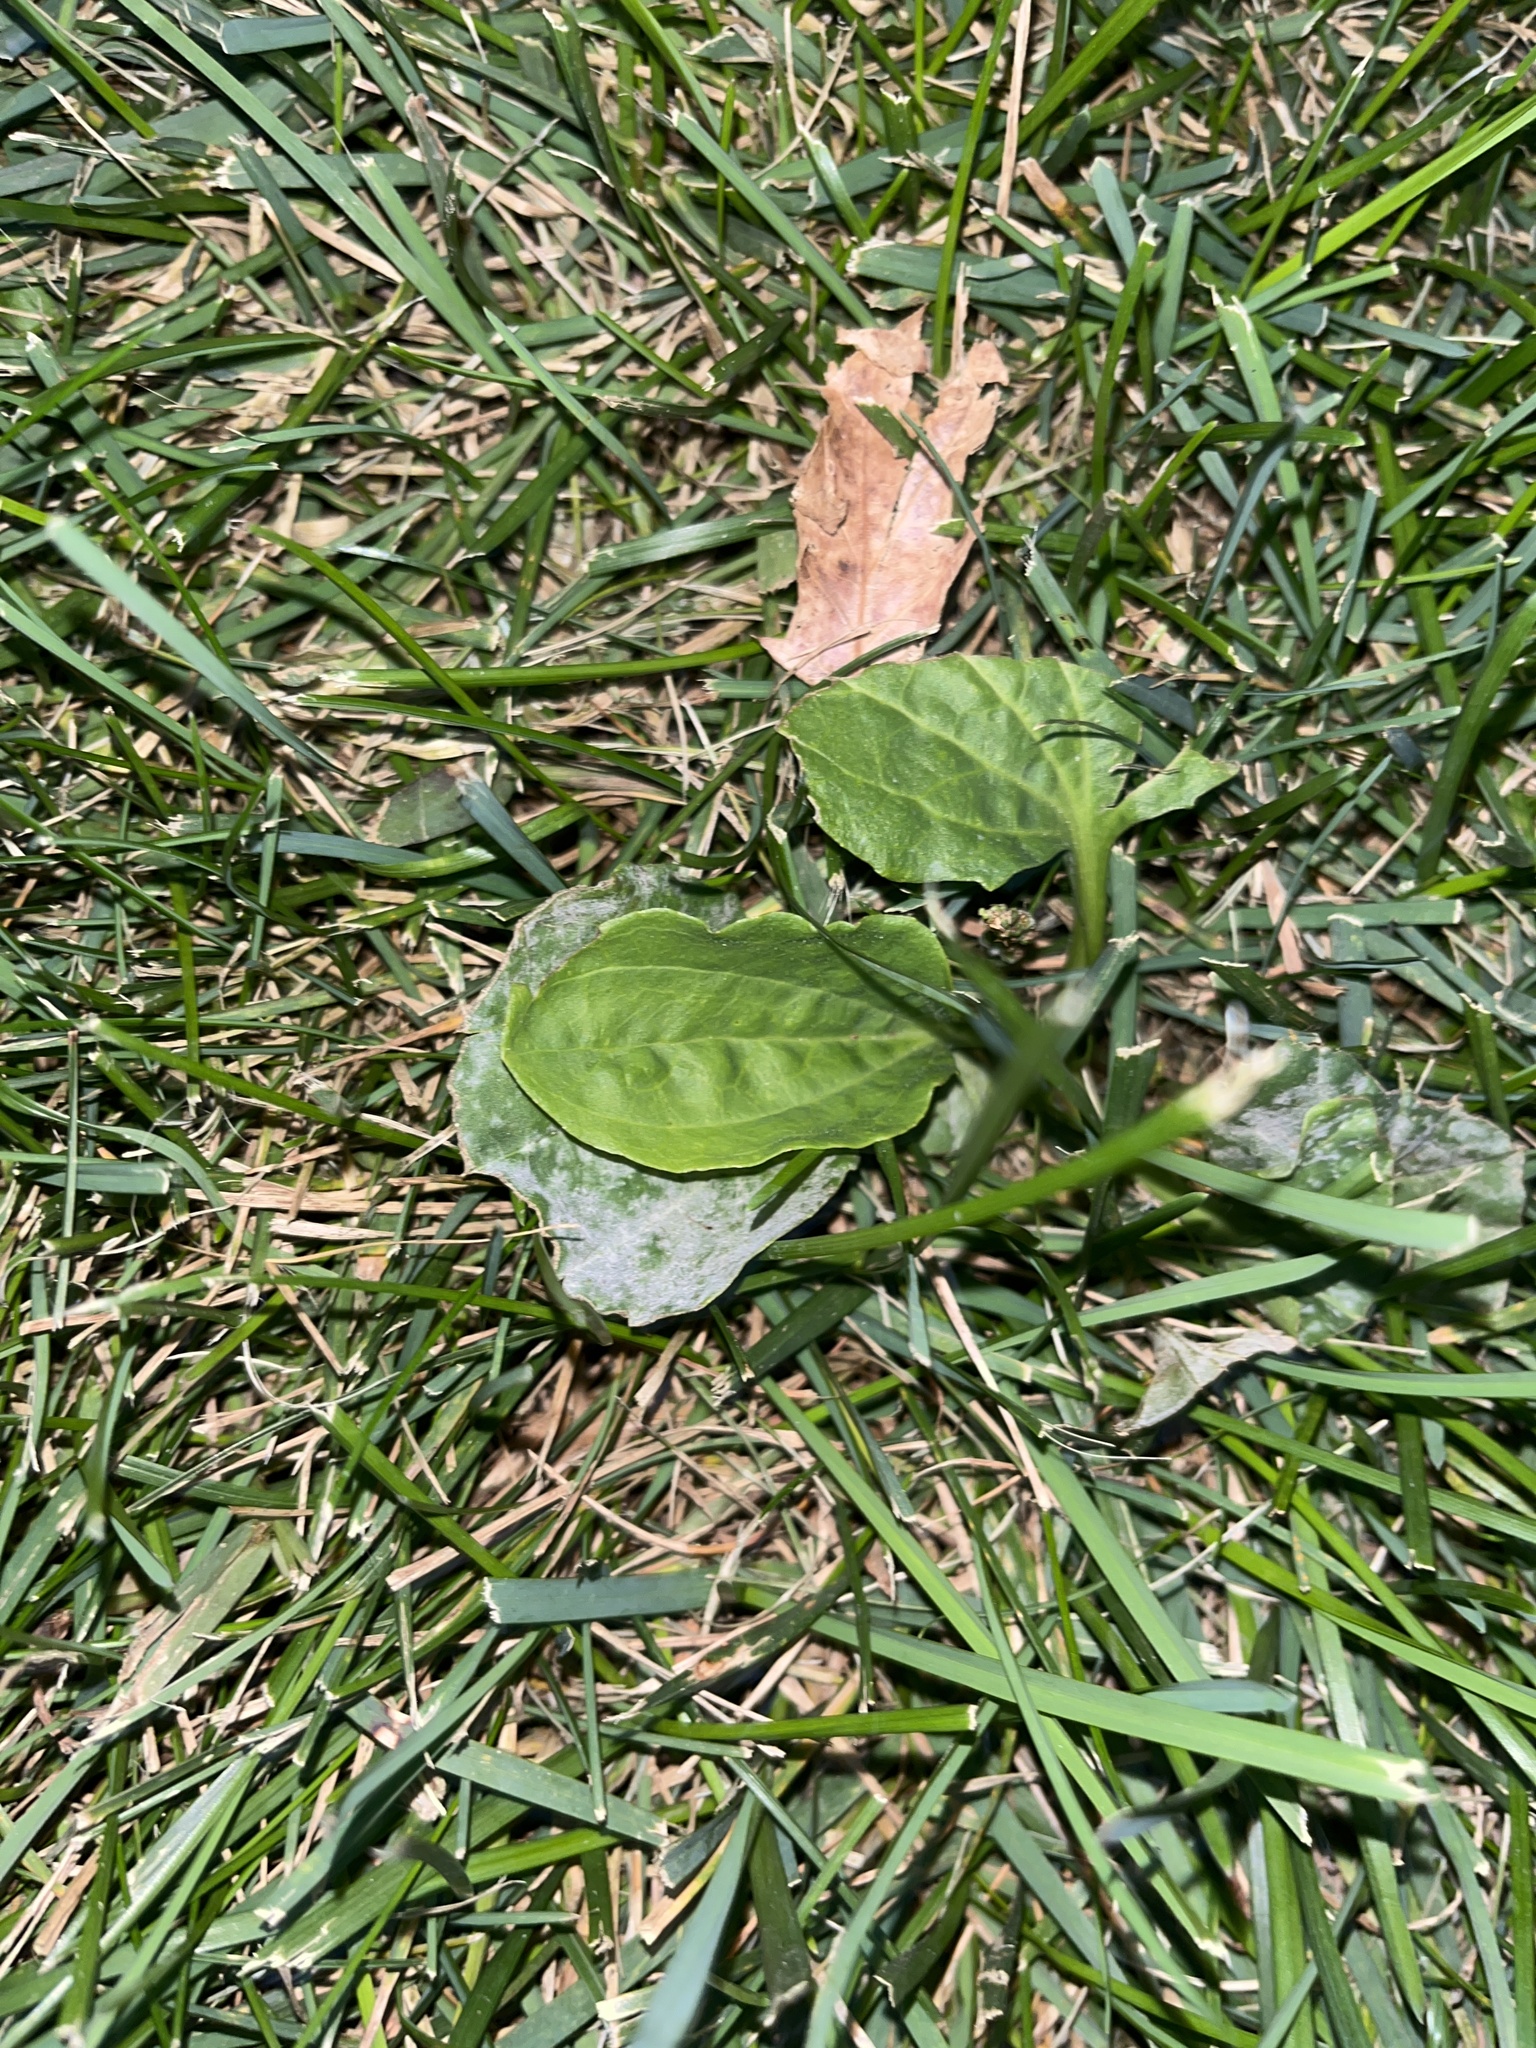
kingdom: Plantae
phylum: Tracheophyta
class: Magnoliopsida
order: Lamiales
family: Plantaginaceae
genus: Plantago
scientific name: Plantago rugelii
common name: American plantain
